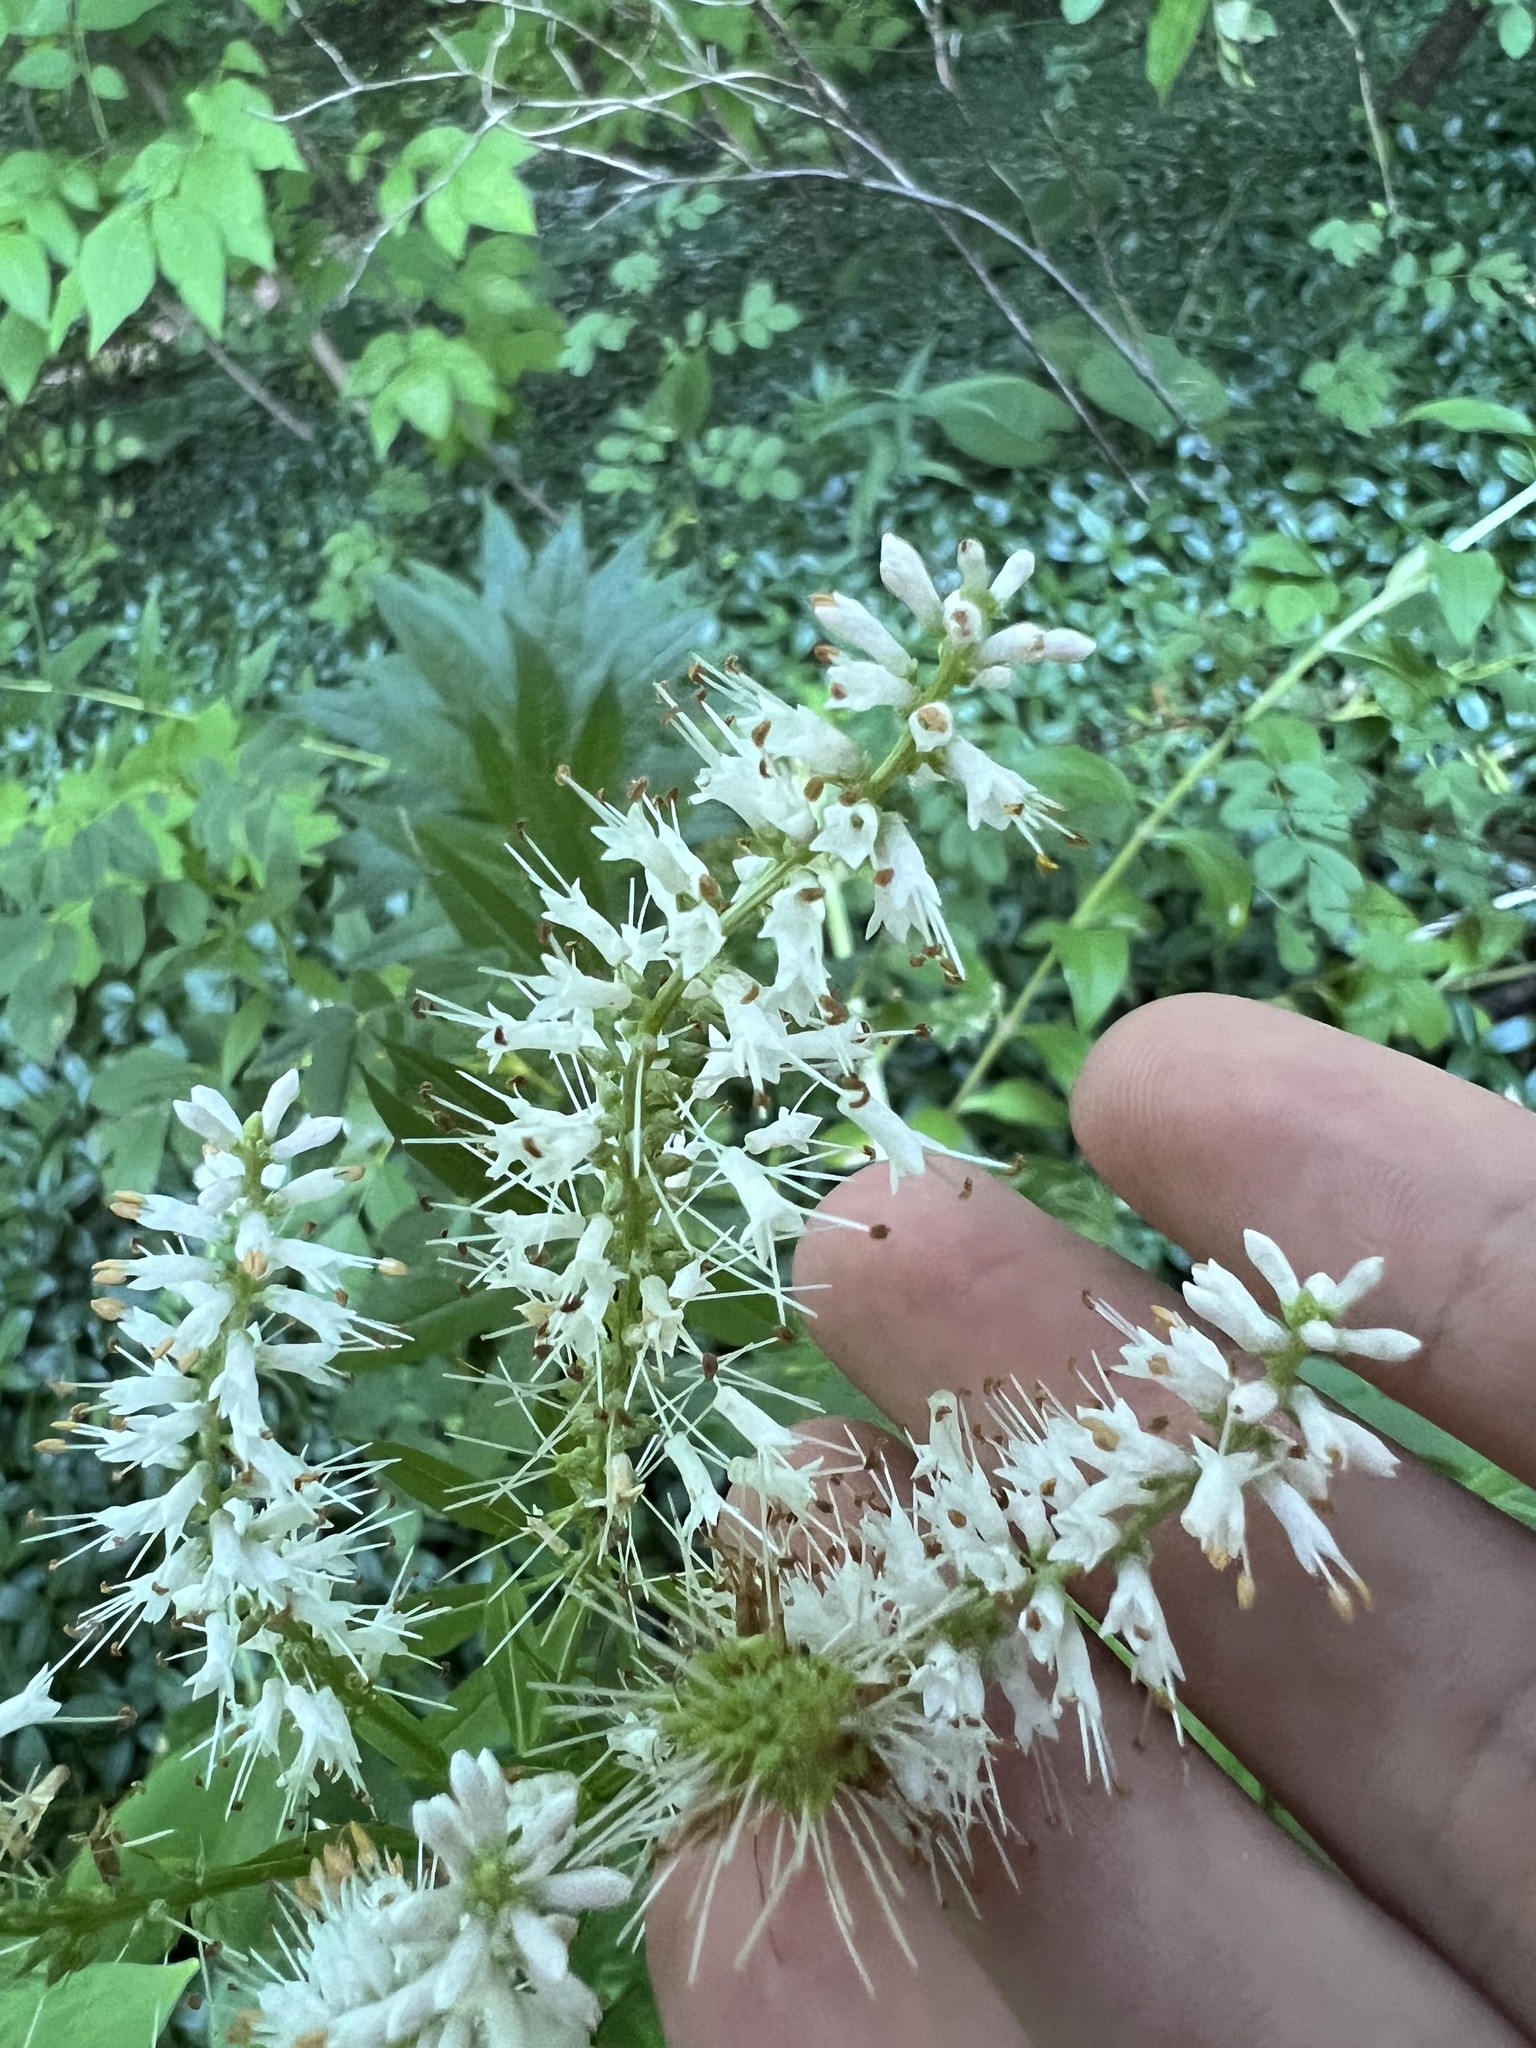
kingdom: Plantae
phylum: Tracheophyta
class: Magnoliopsida
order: Lamiales
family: Plantaginaceae
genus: Veronicastrum
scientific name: Veronicastrum virginicum
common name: Blackroot
